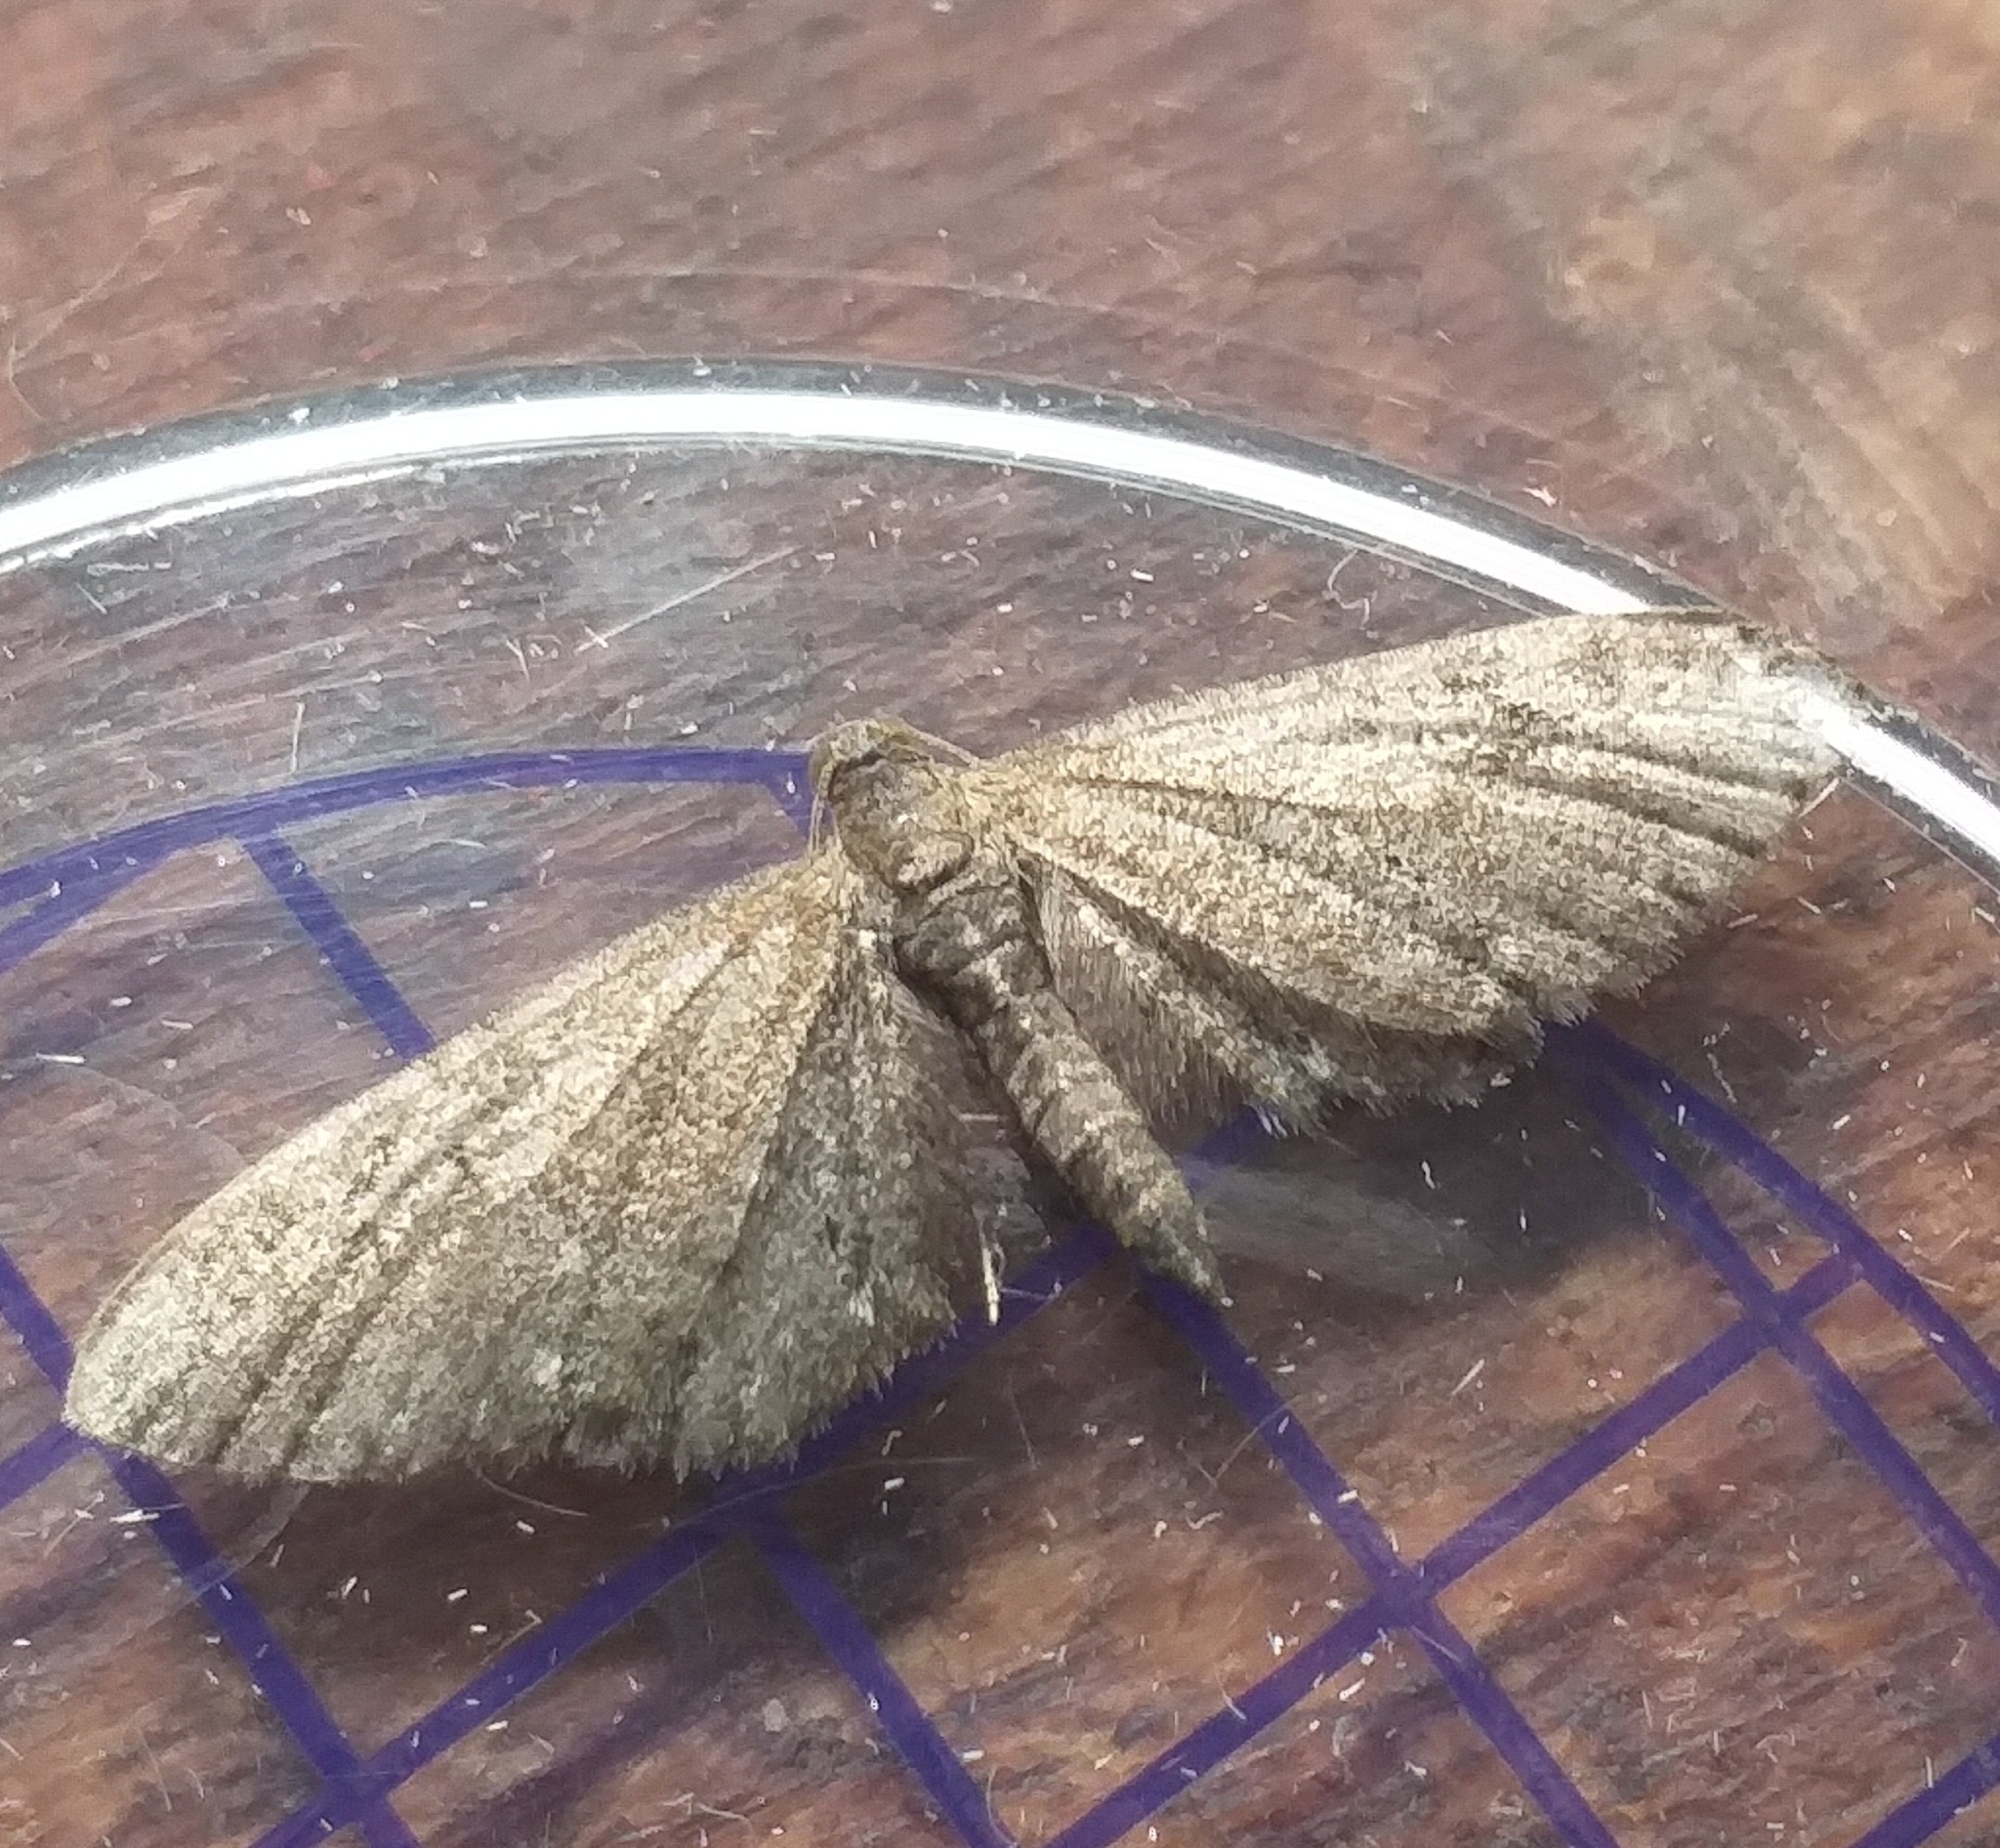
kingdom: Animalia
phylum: Arthropoda
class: Insecta
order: Lepidoptera
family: Geometridae
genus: Eupithecia
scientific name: Eupithecia vulgata
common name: Common pug
